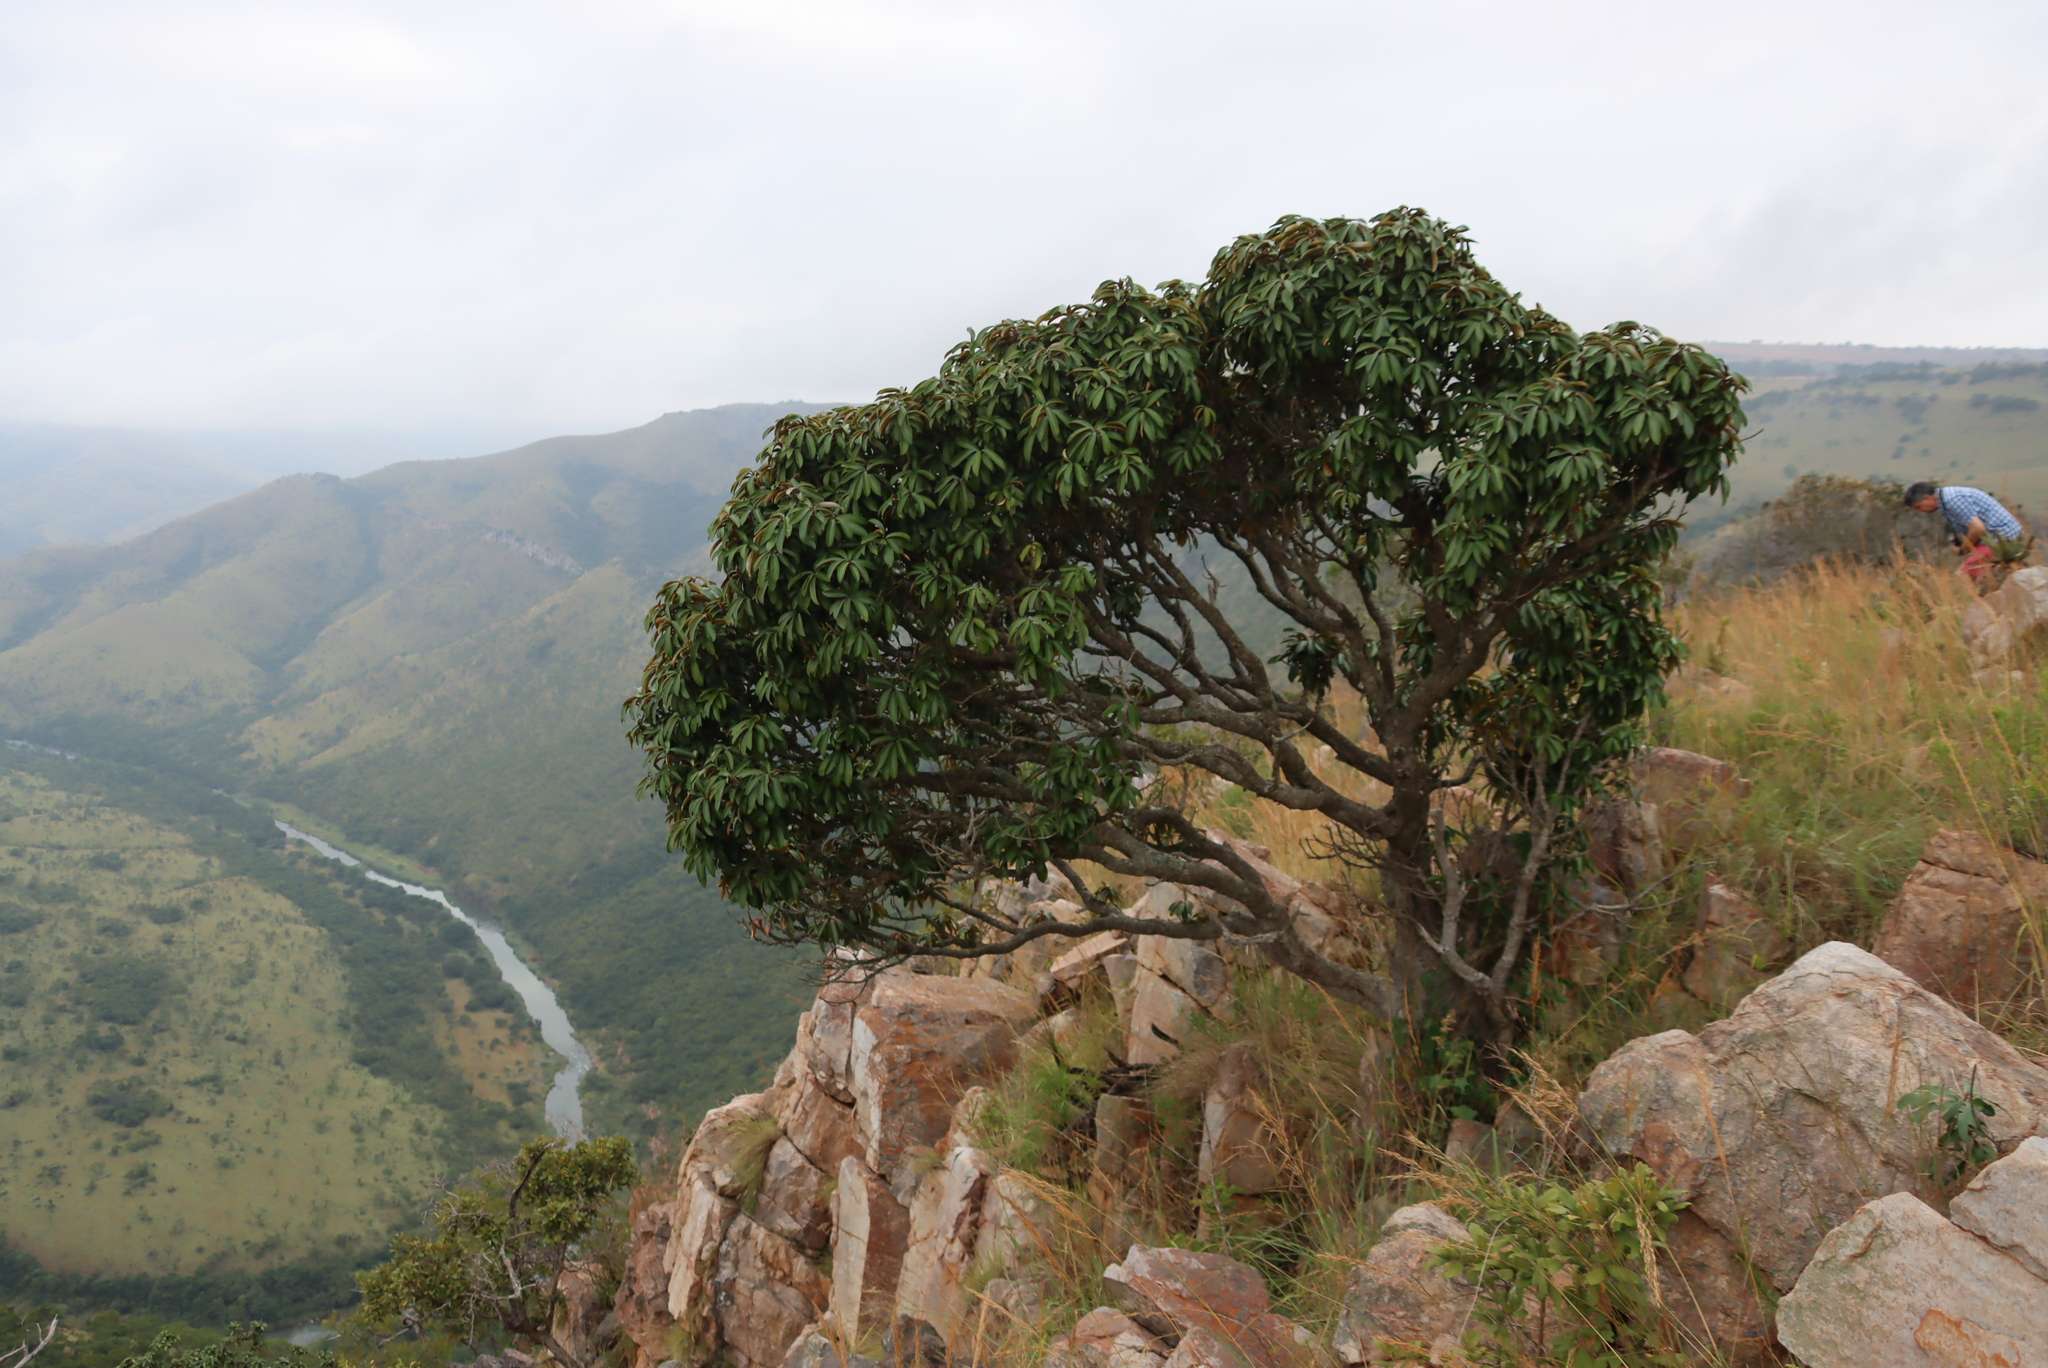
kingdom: Plantae
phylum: Tracheophyta
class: Magnoliopsida
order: Ericales
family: Sapotaceae
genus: Englerophytum
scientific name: Englerophytum magalismontanum
